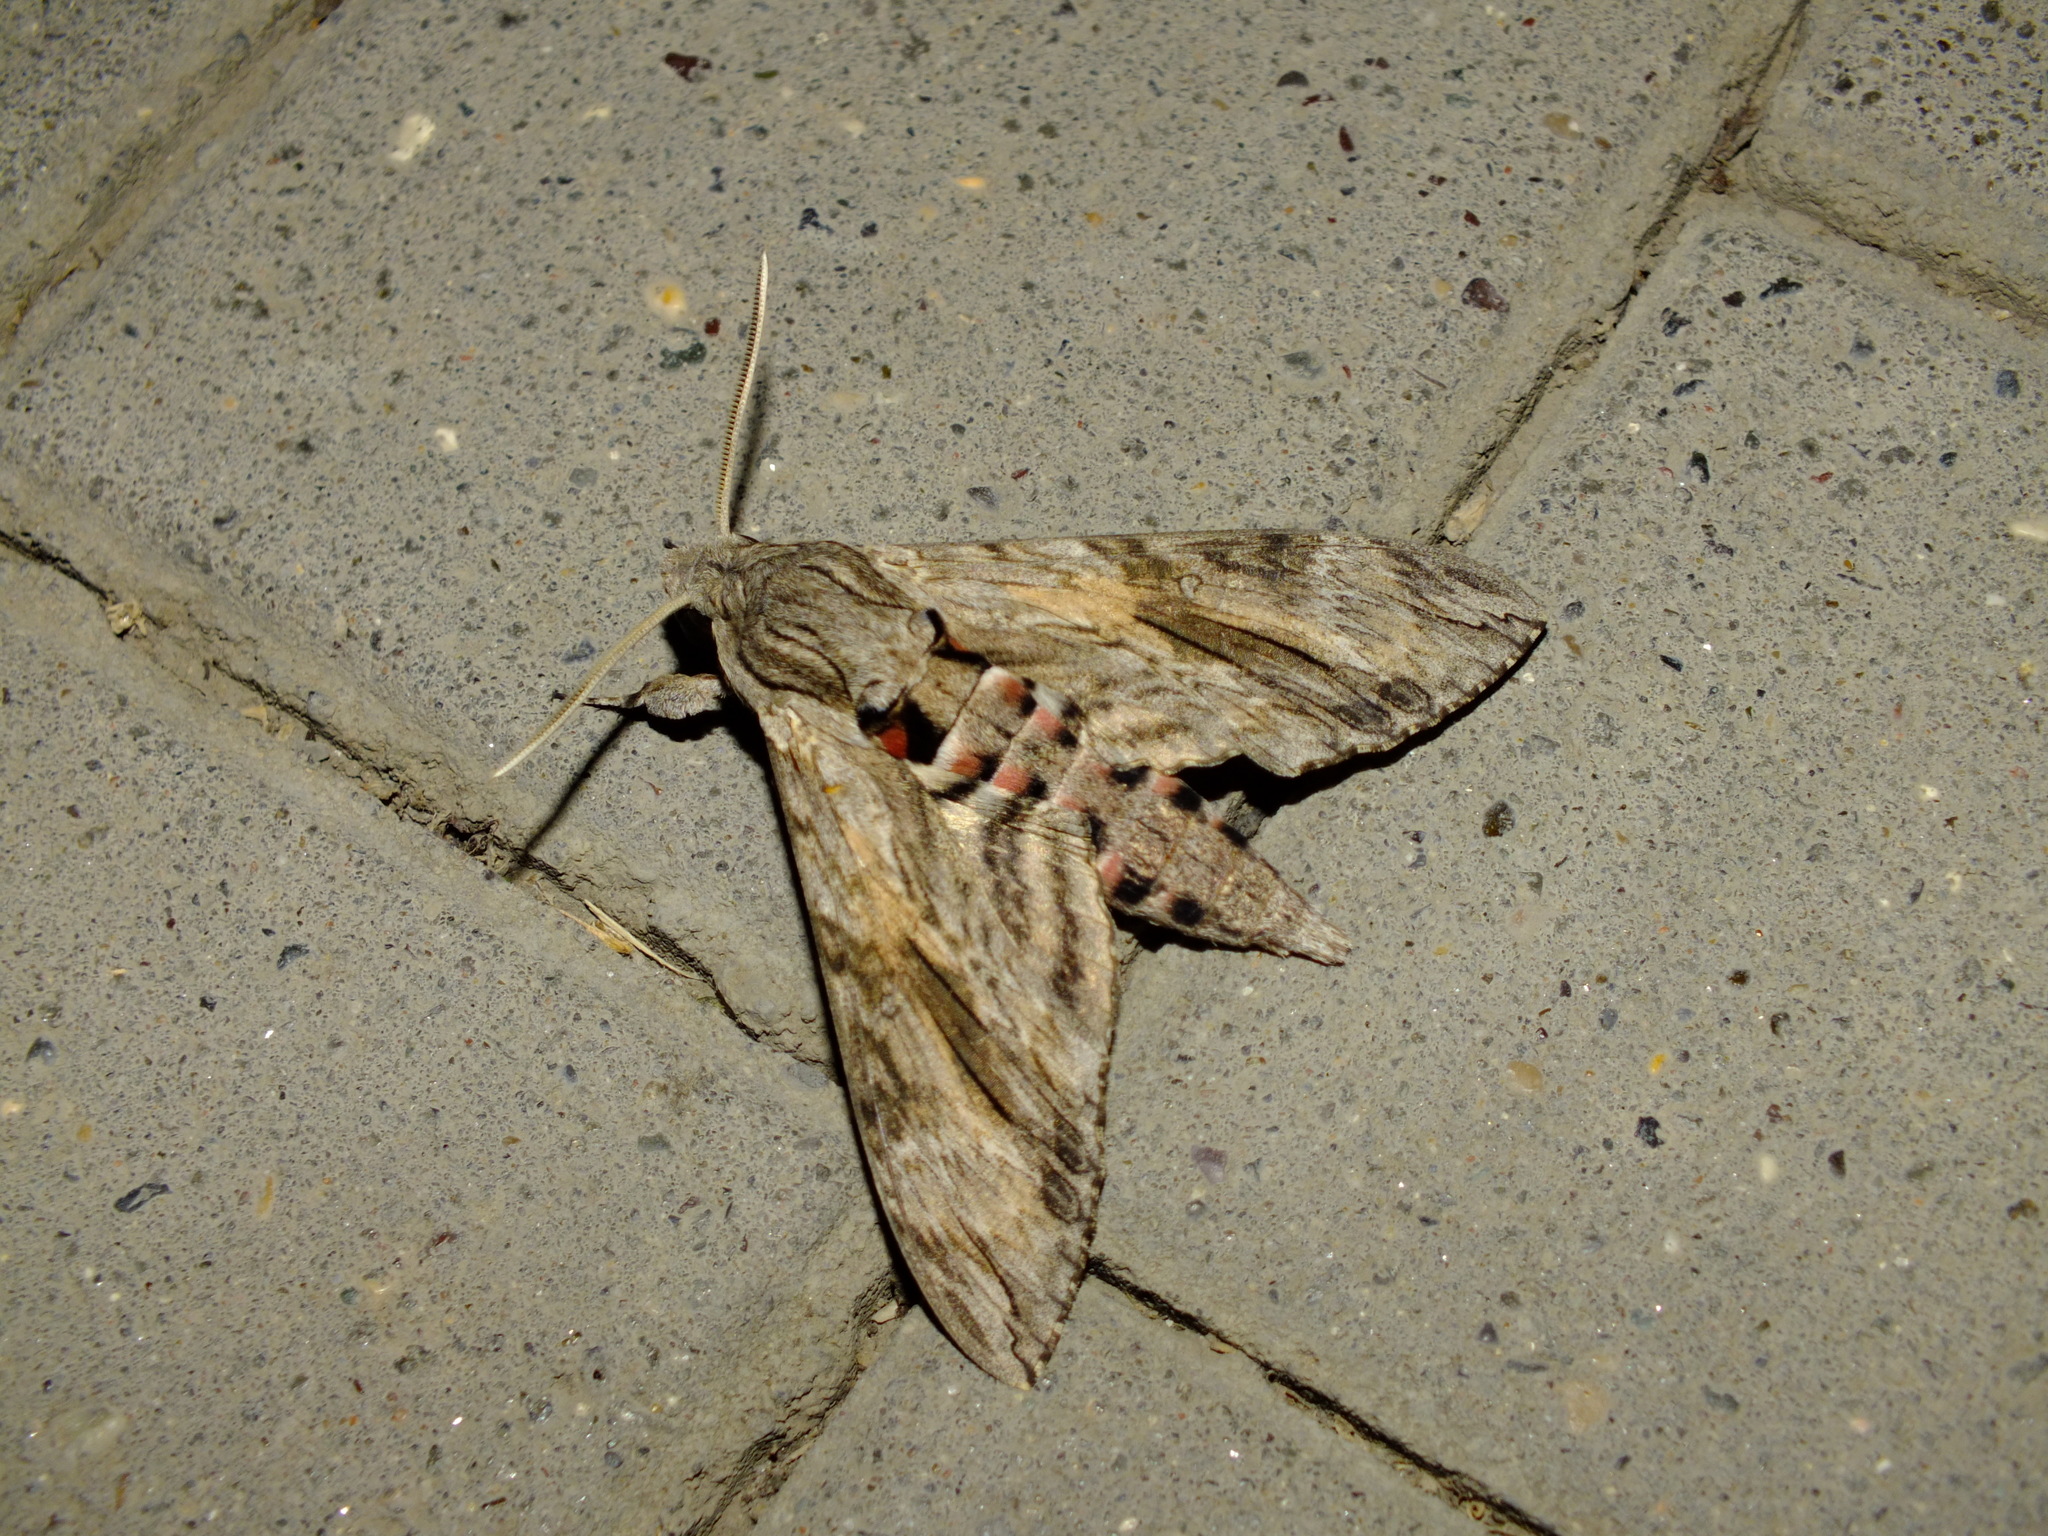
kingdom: Animalia
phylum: Arthropoda
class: Insecta
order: Lepidoptera
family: Sphingidae
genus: Agrius
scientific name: Agrius convolvuli
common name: Convolvulus hawkmoth
